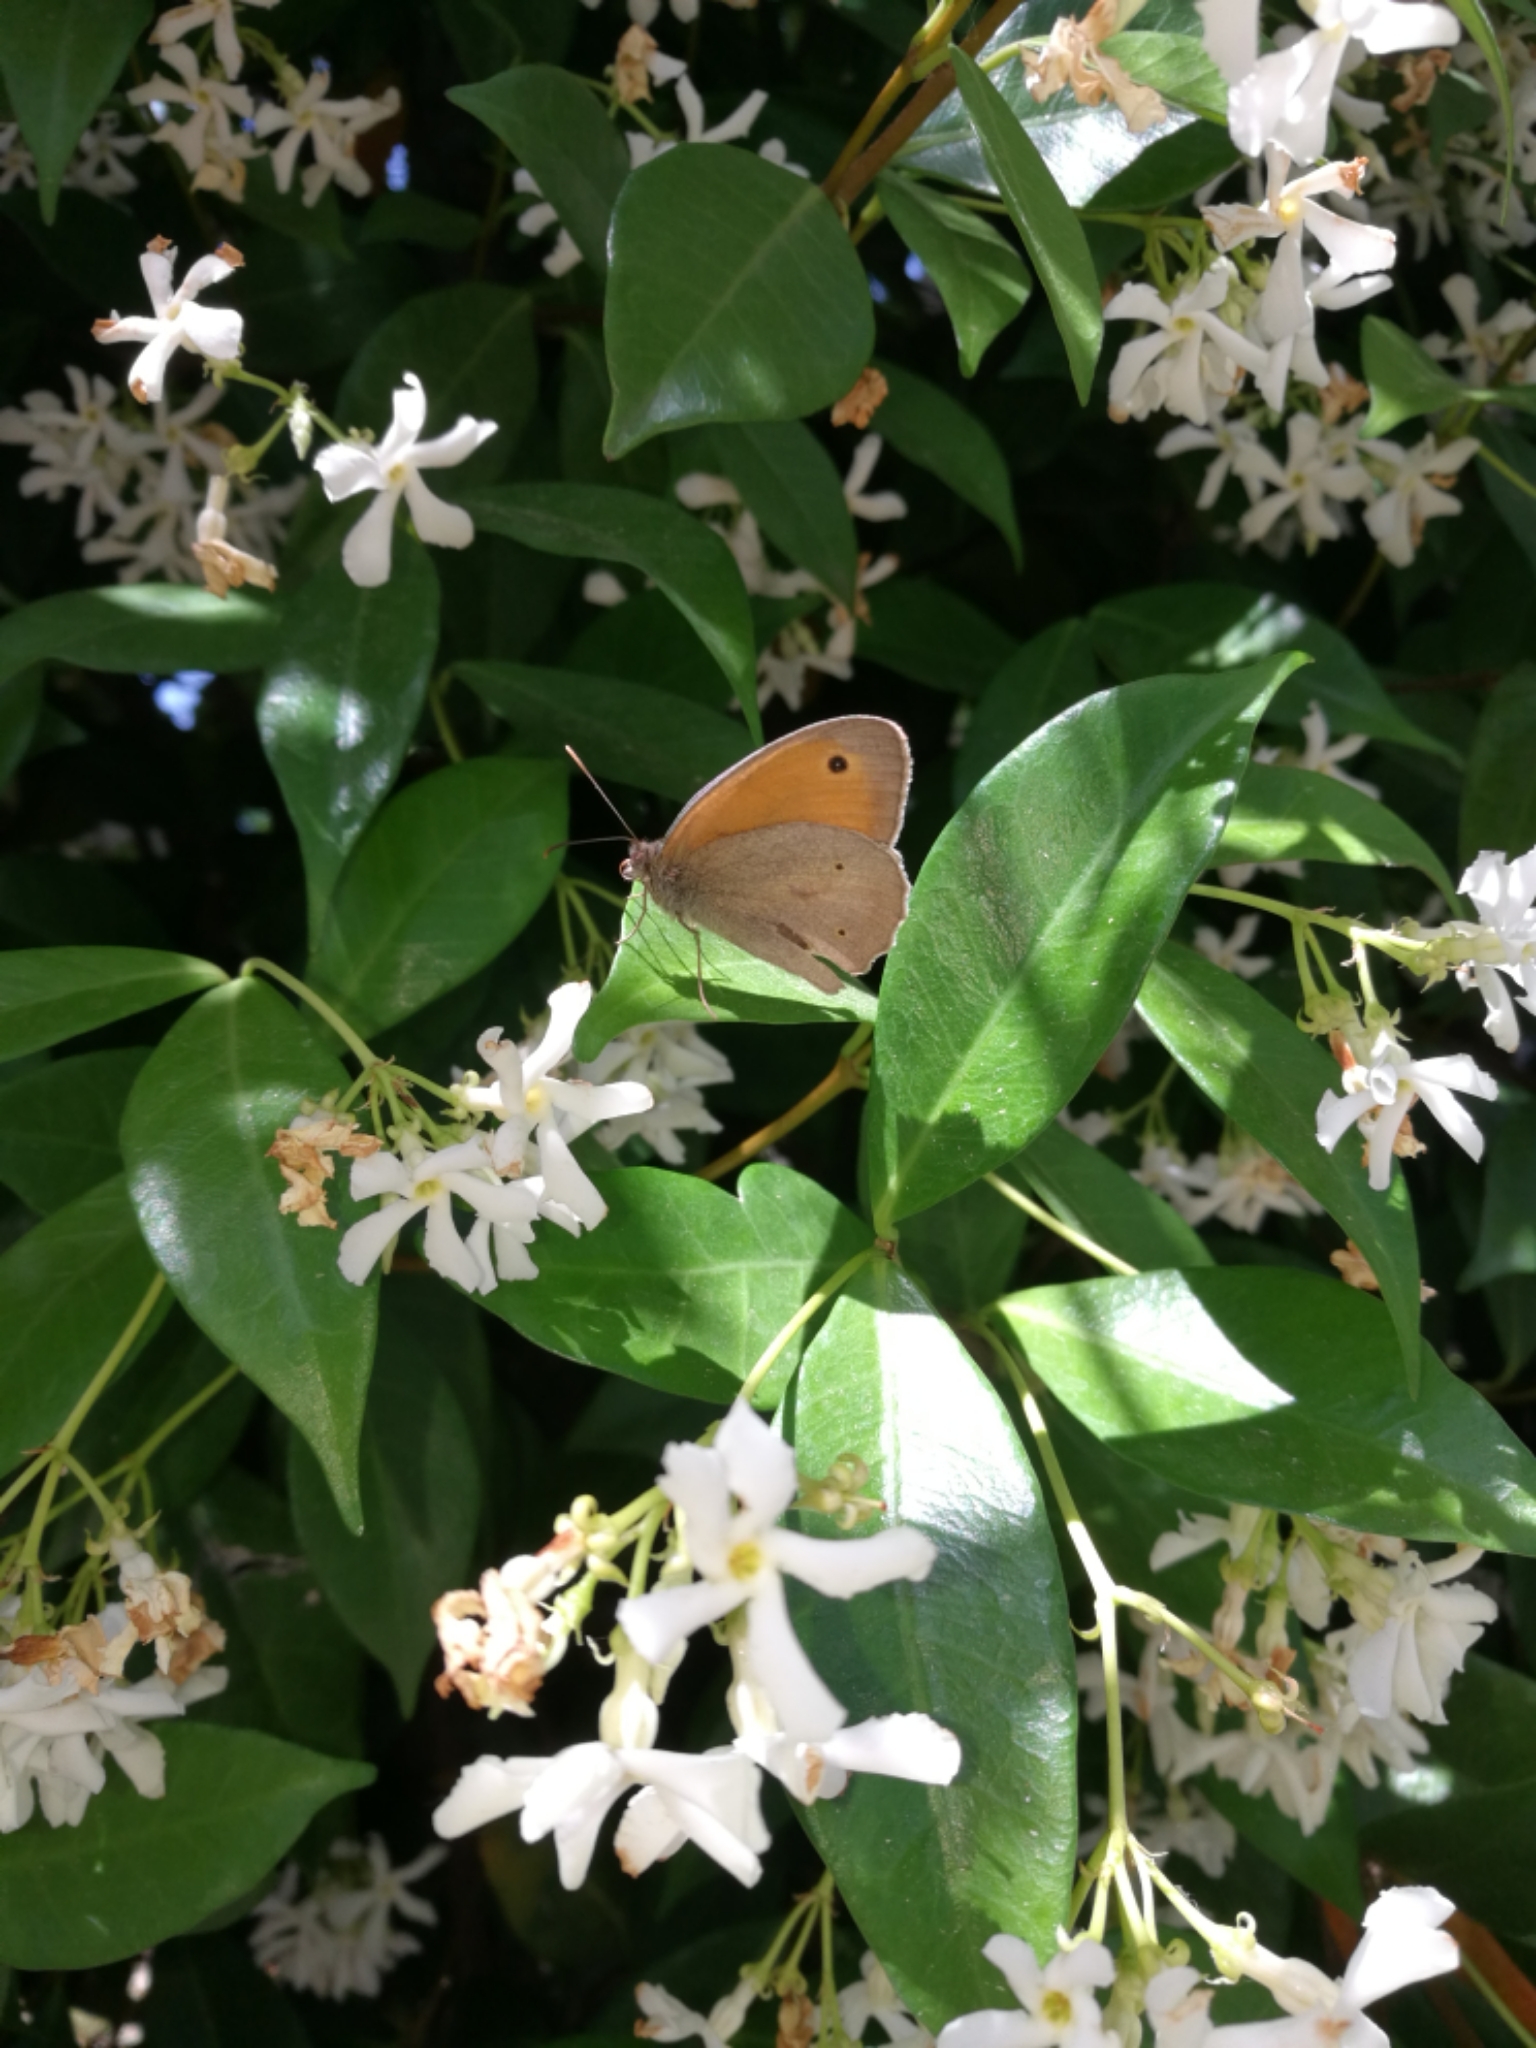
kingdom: Animalia
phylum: Arthropoda
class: Insecta
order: Lepidoptera
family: Nymphalidae
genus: Maniola
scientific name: Maniola jurtina
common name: Meadow brown
